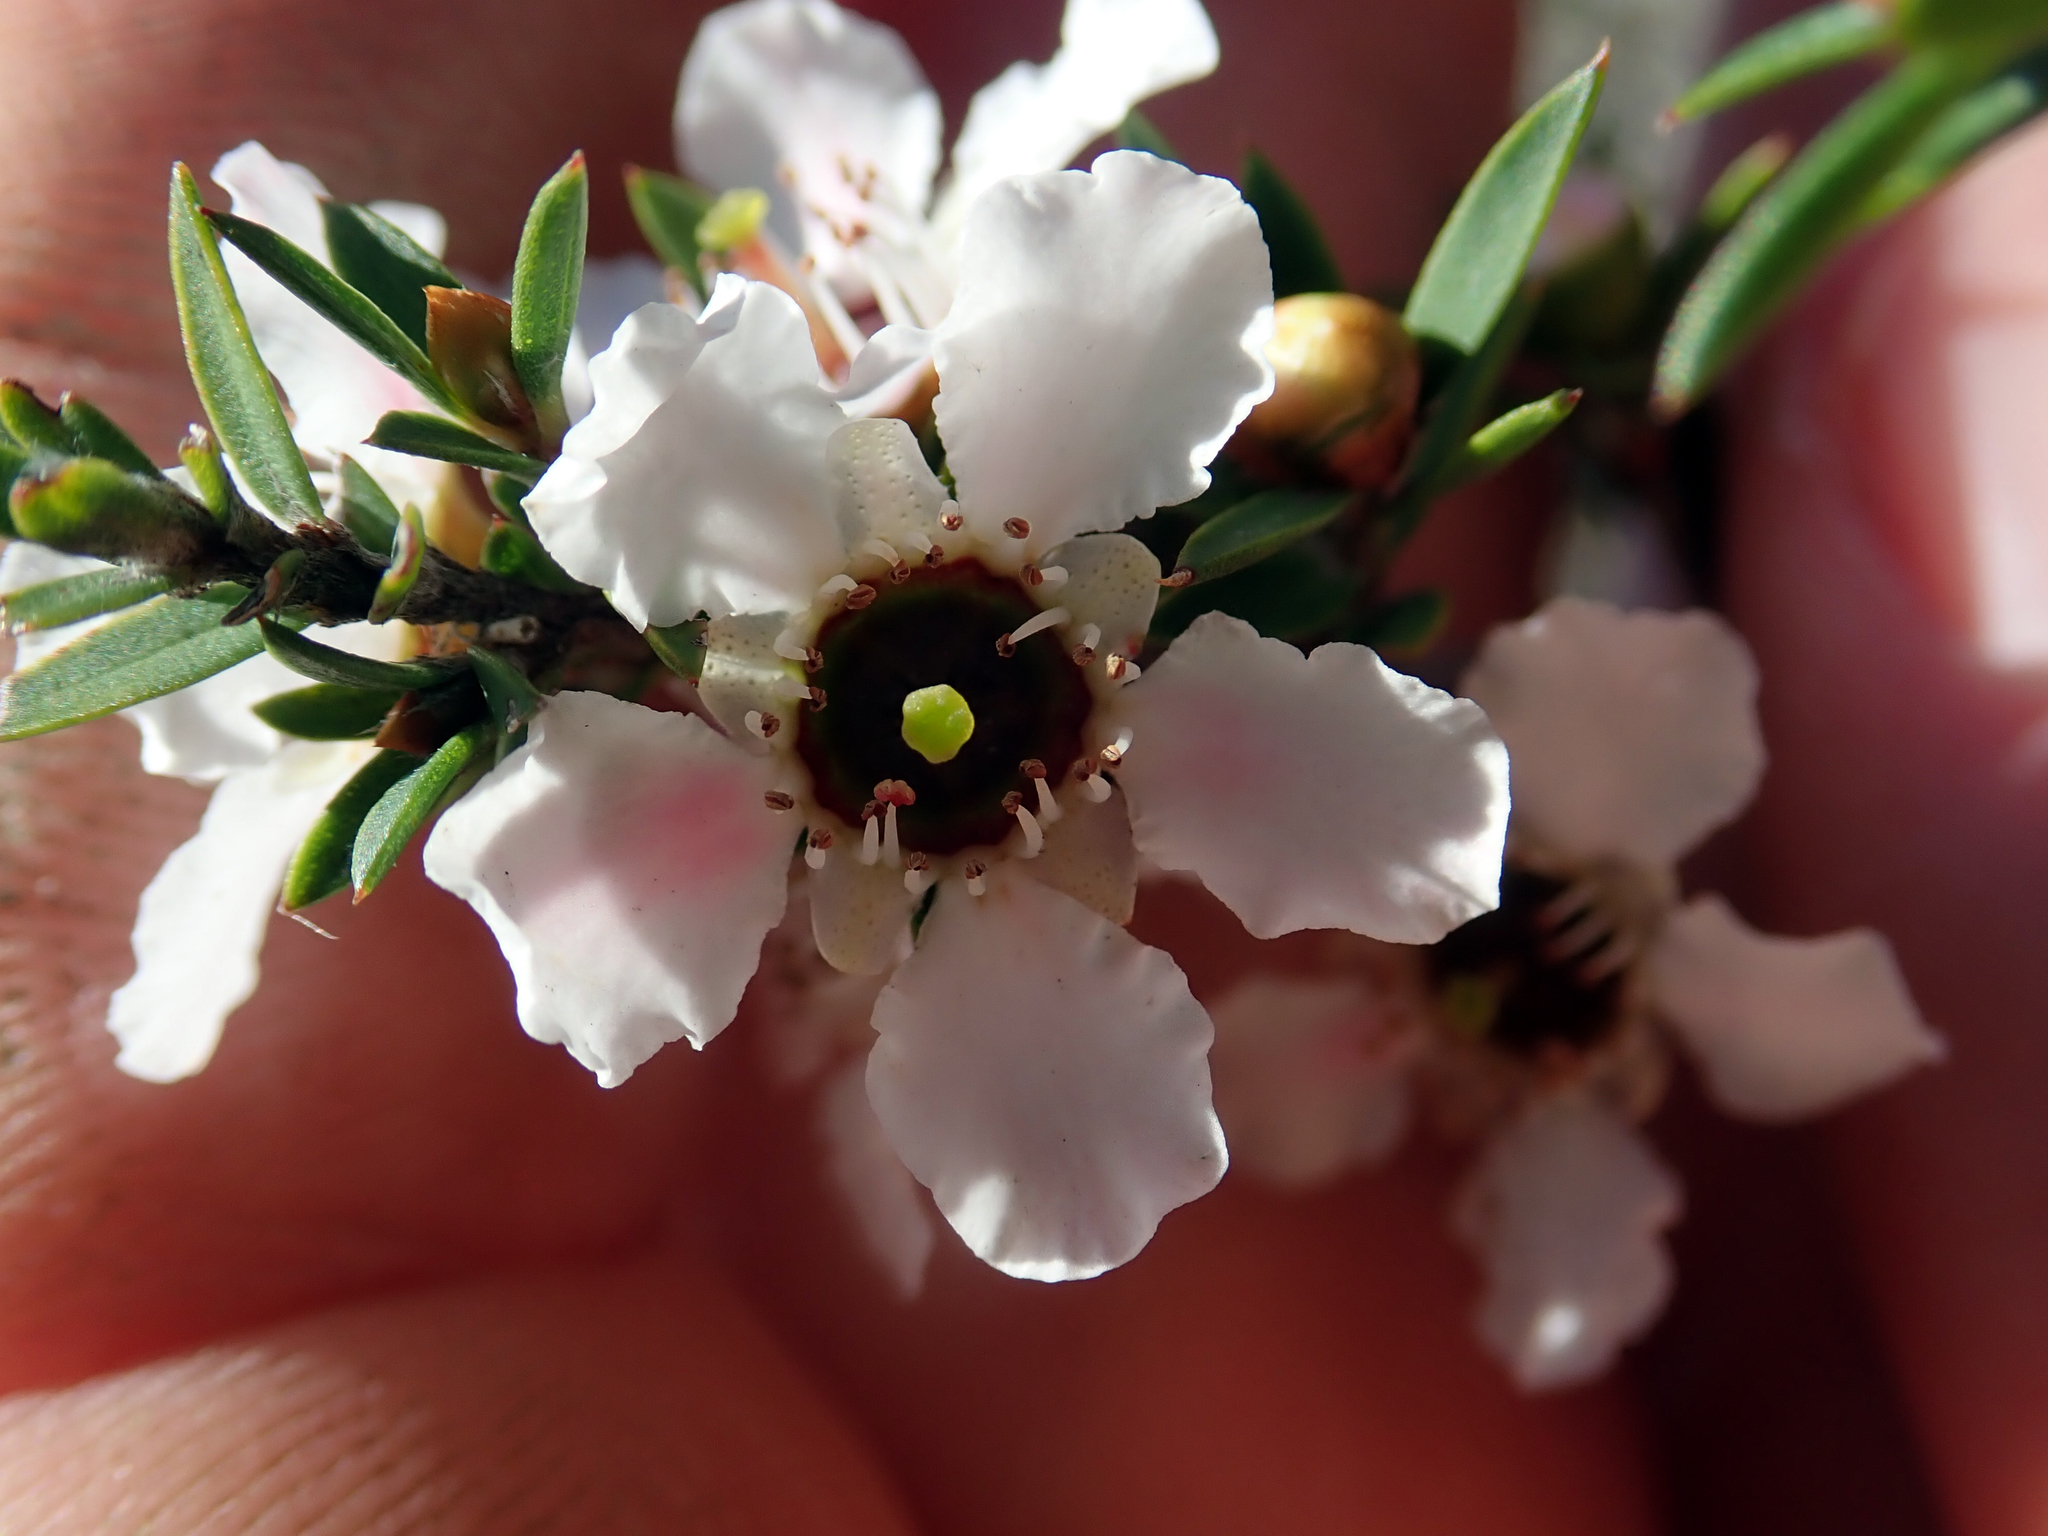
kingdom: Plantae
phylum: Tracheophyta
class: Magnoliopsida
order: Myrtales
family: Myrtaceae
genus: Leptospermum
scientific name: Leptospermum scoparium
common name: Broom tea-tree
